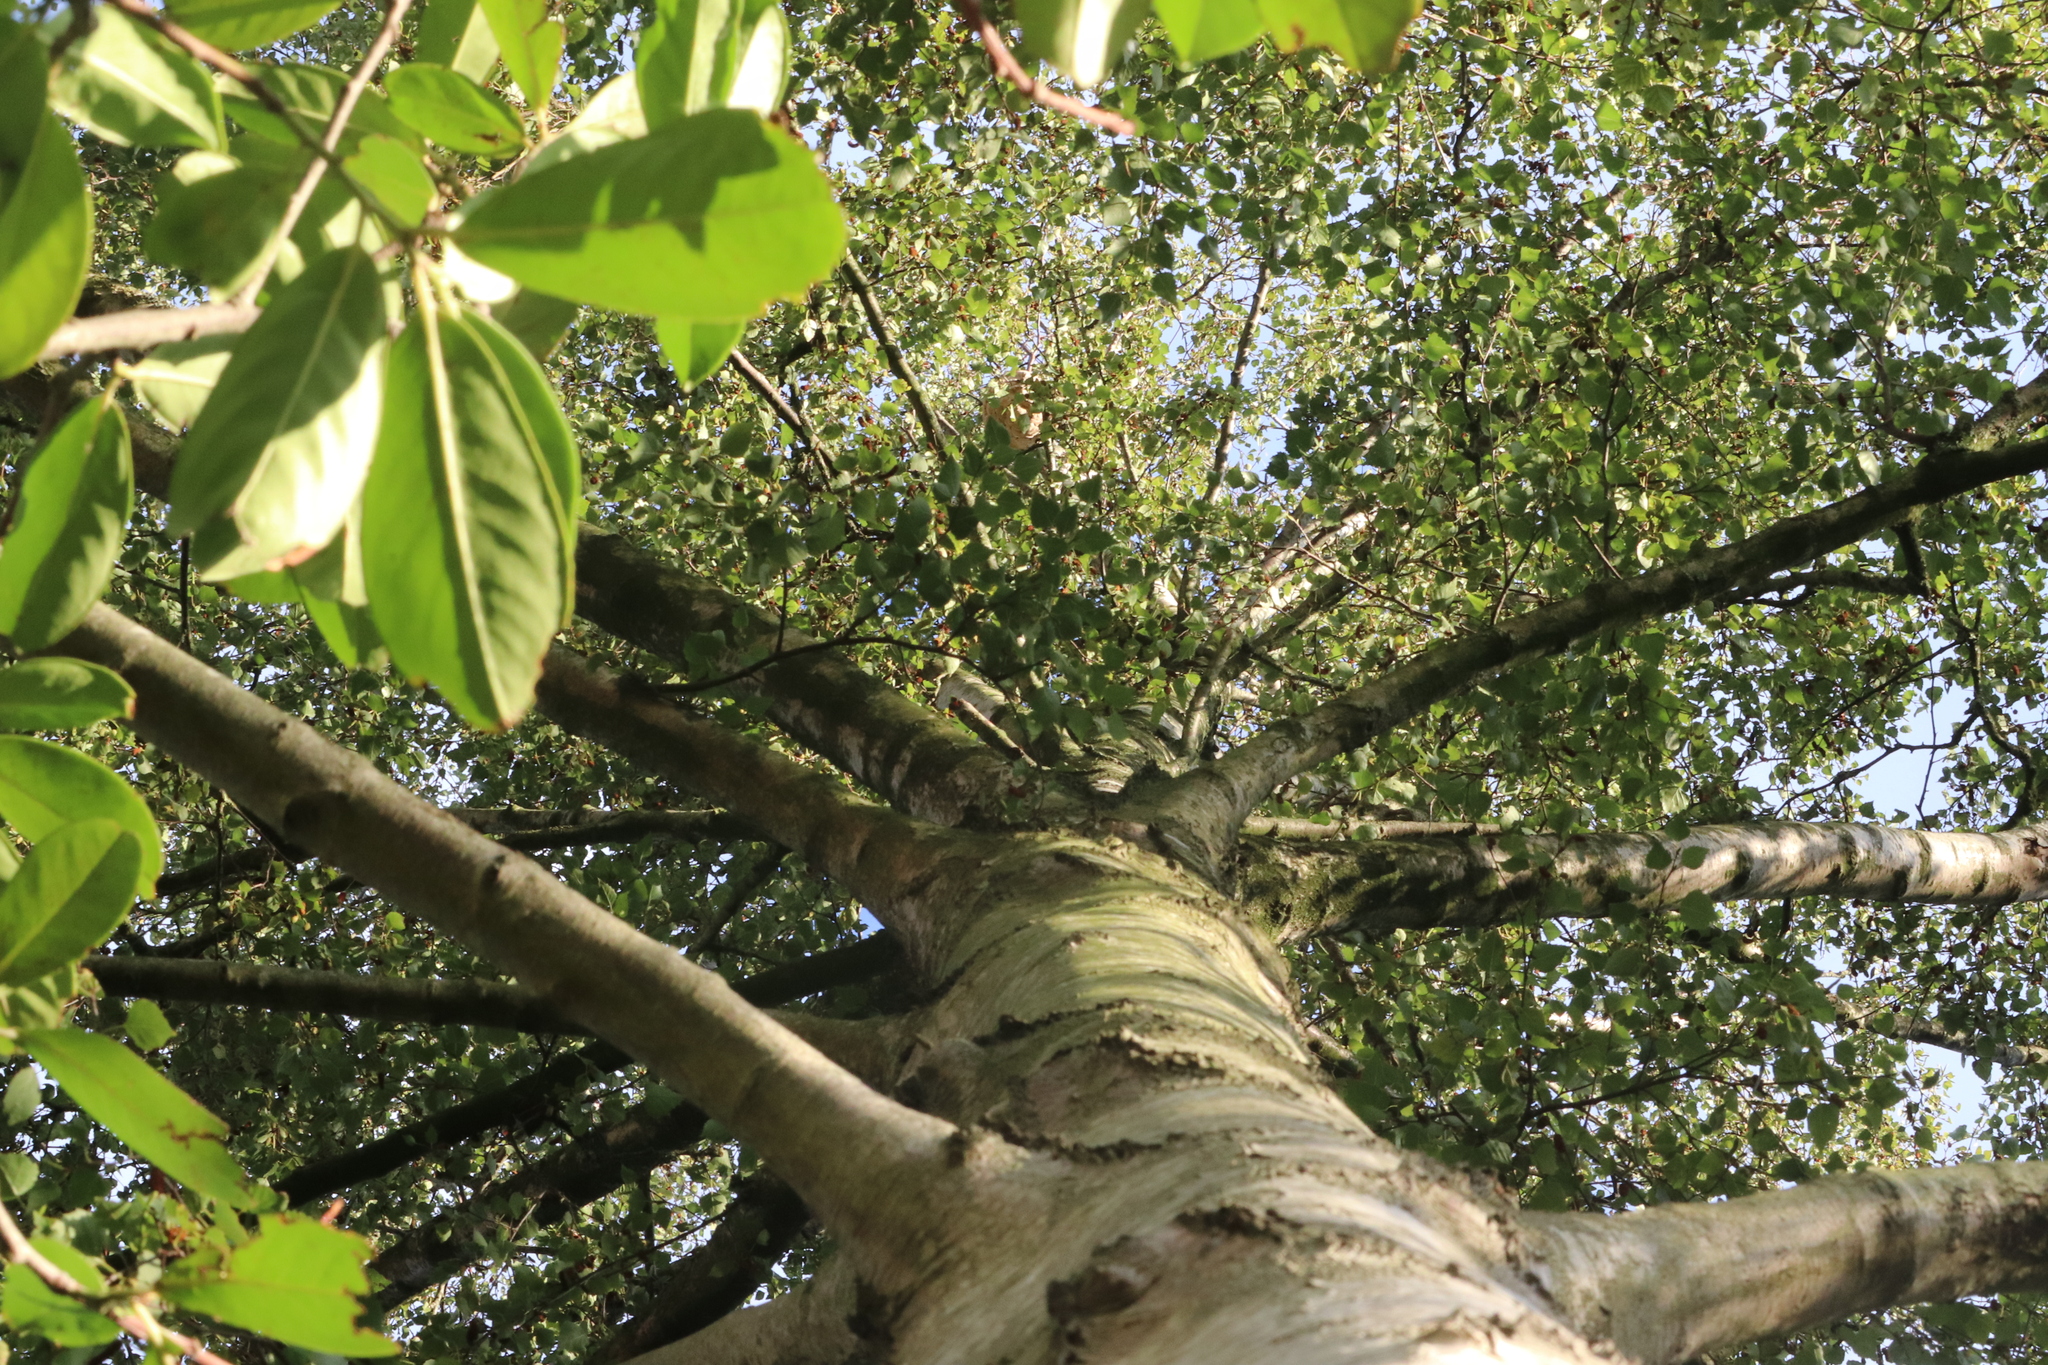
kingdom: Animalia
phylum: Arthropoda
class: Insecta
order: Hymenoptera
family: Vespidae
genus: Vespa
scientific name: Vespa velutina
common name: Asian hornet
